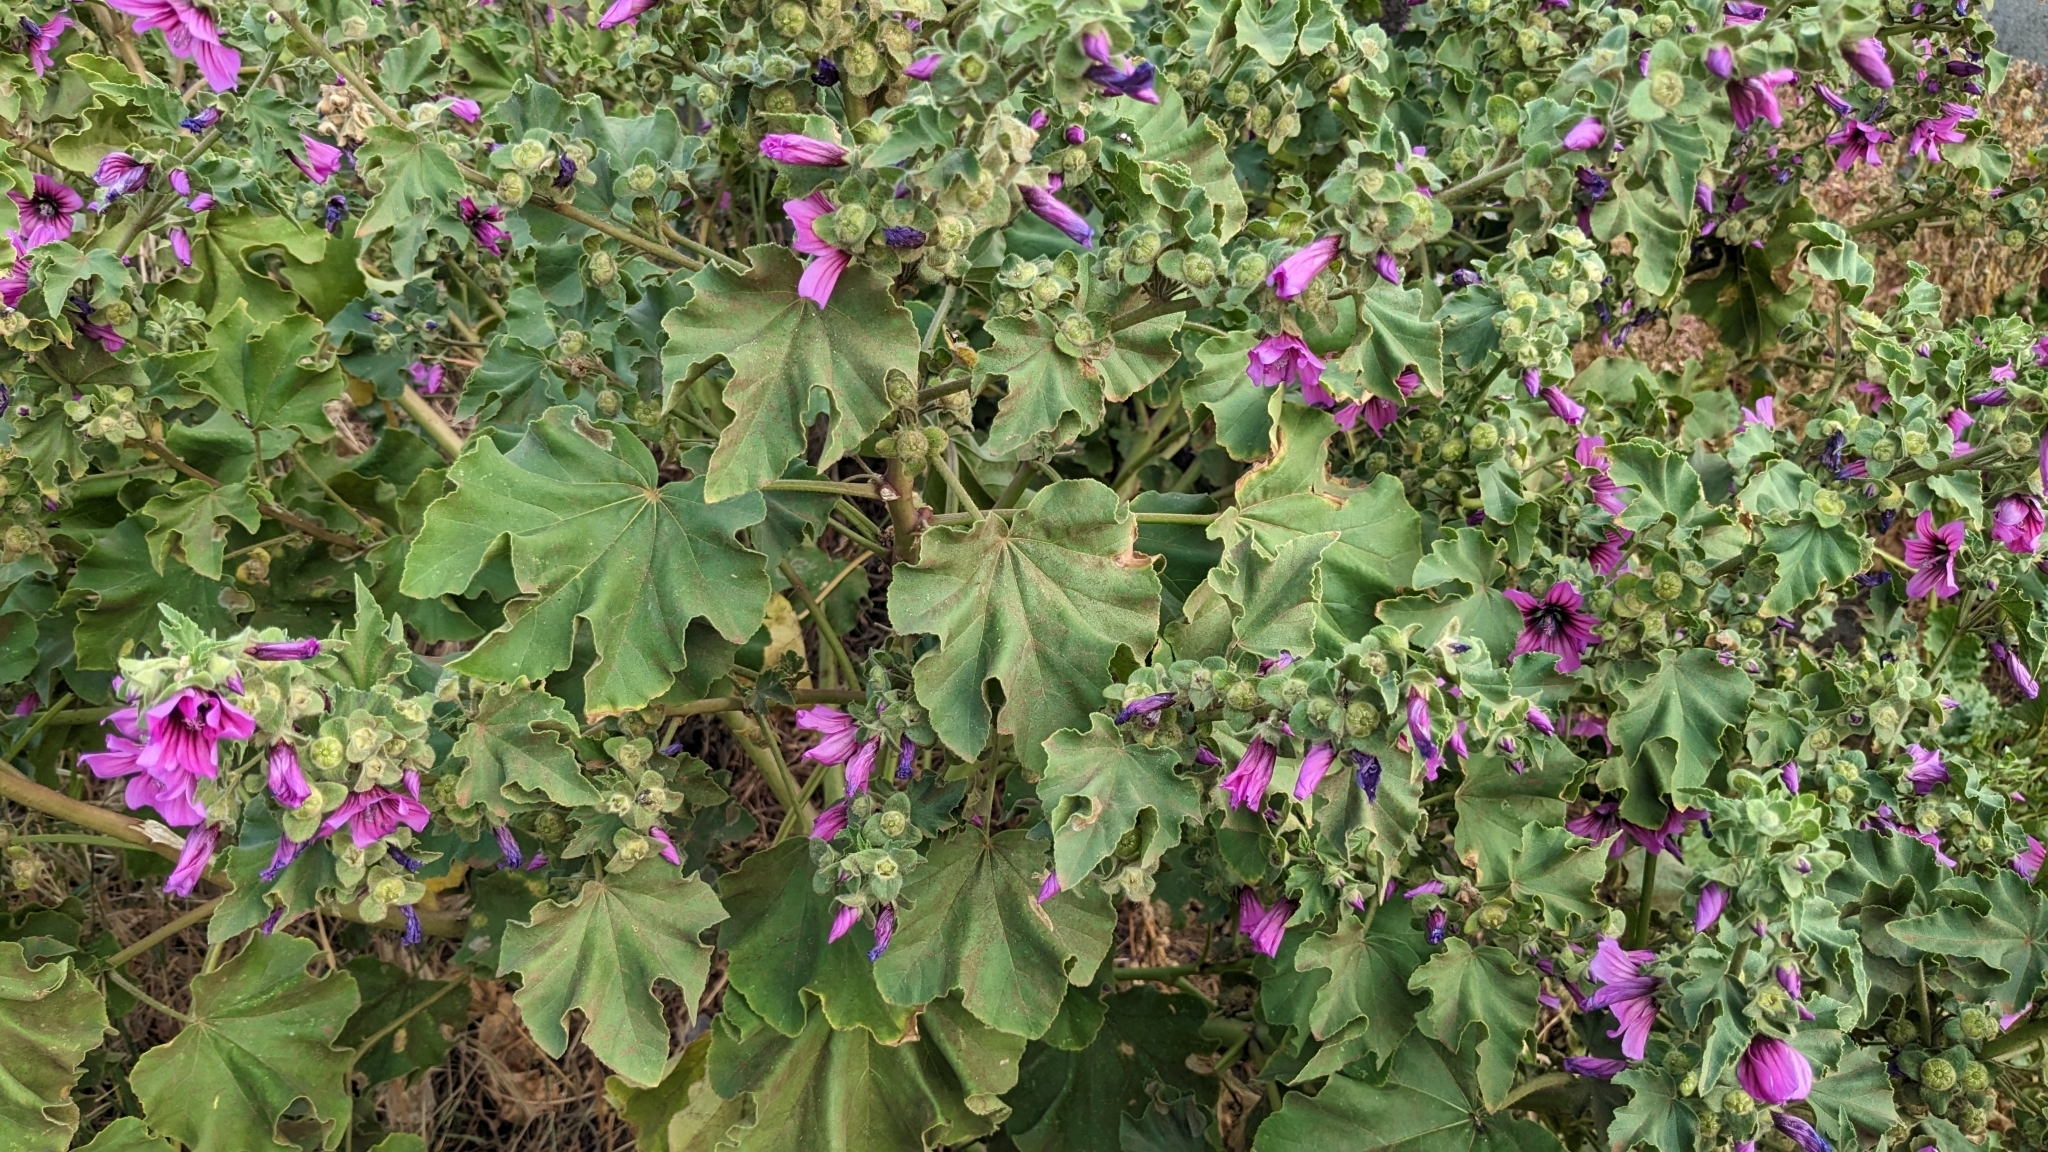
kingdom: Plantae
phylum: Tracheophyta
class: Magnoliopsida
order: Malvales
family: Malvaceae
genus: Malva
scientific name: Malva arborea
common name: Tree mallow
